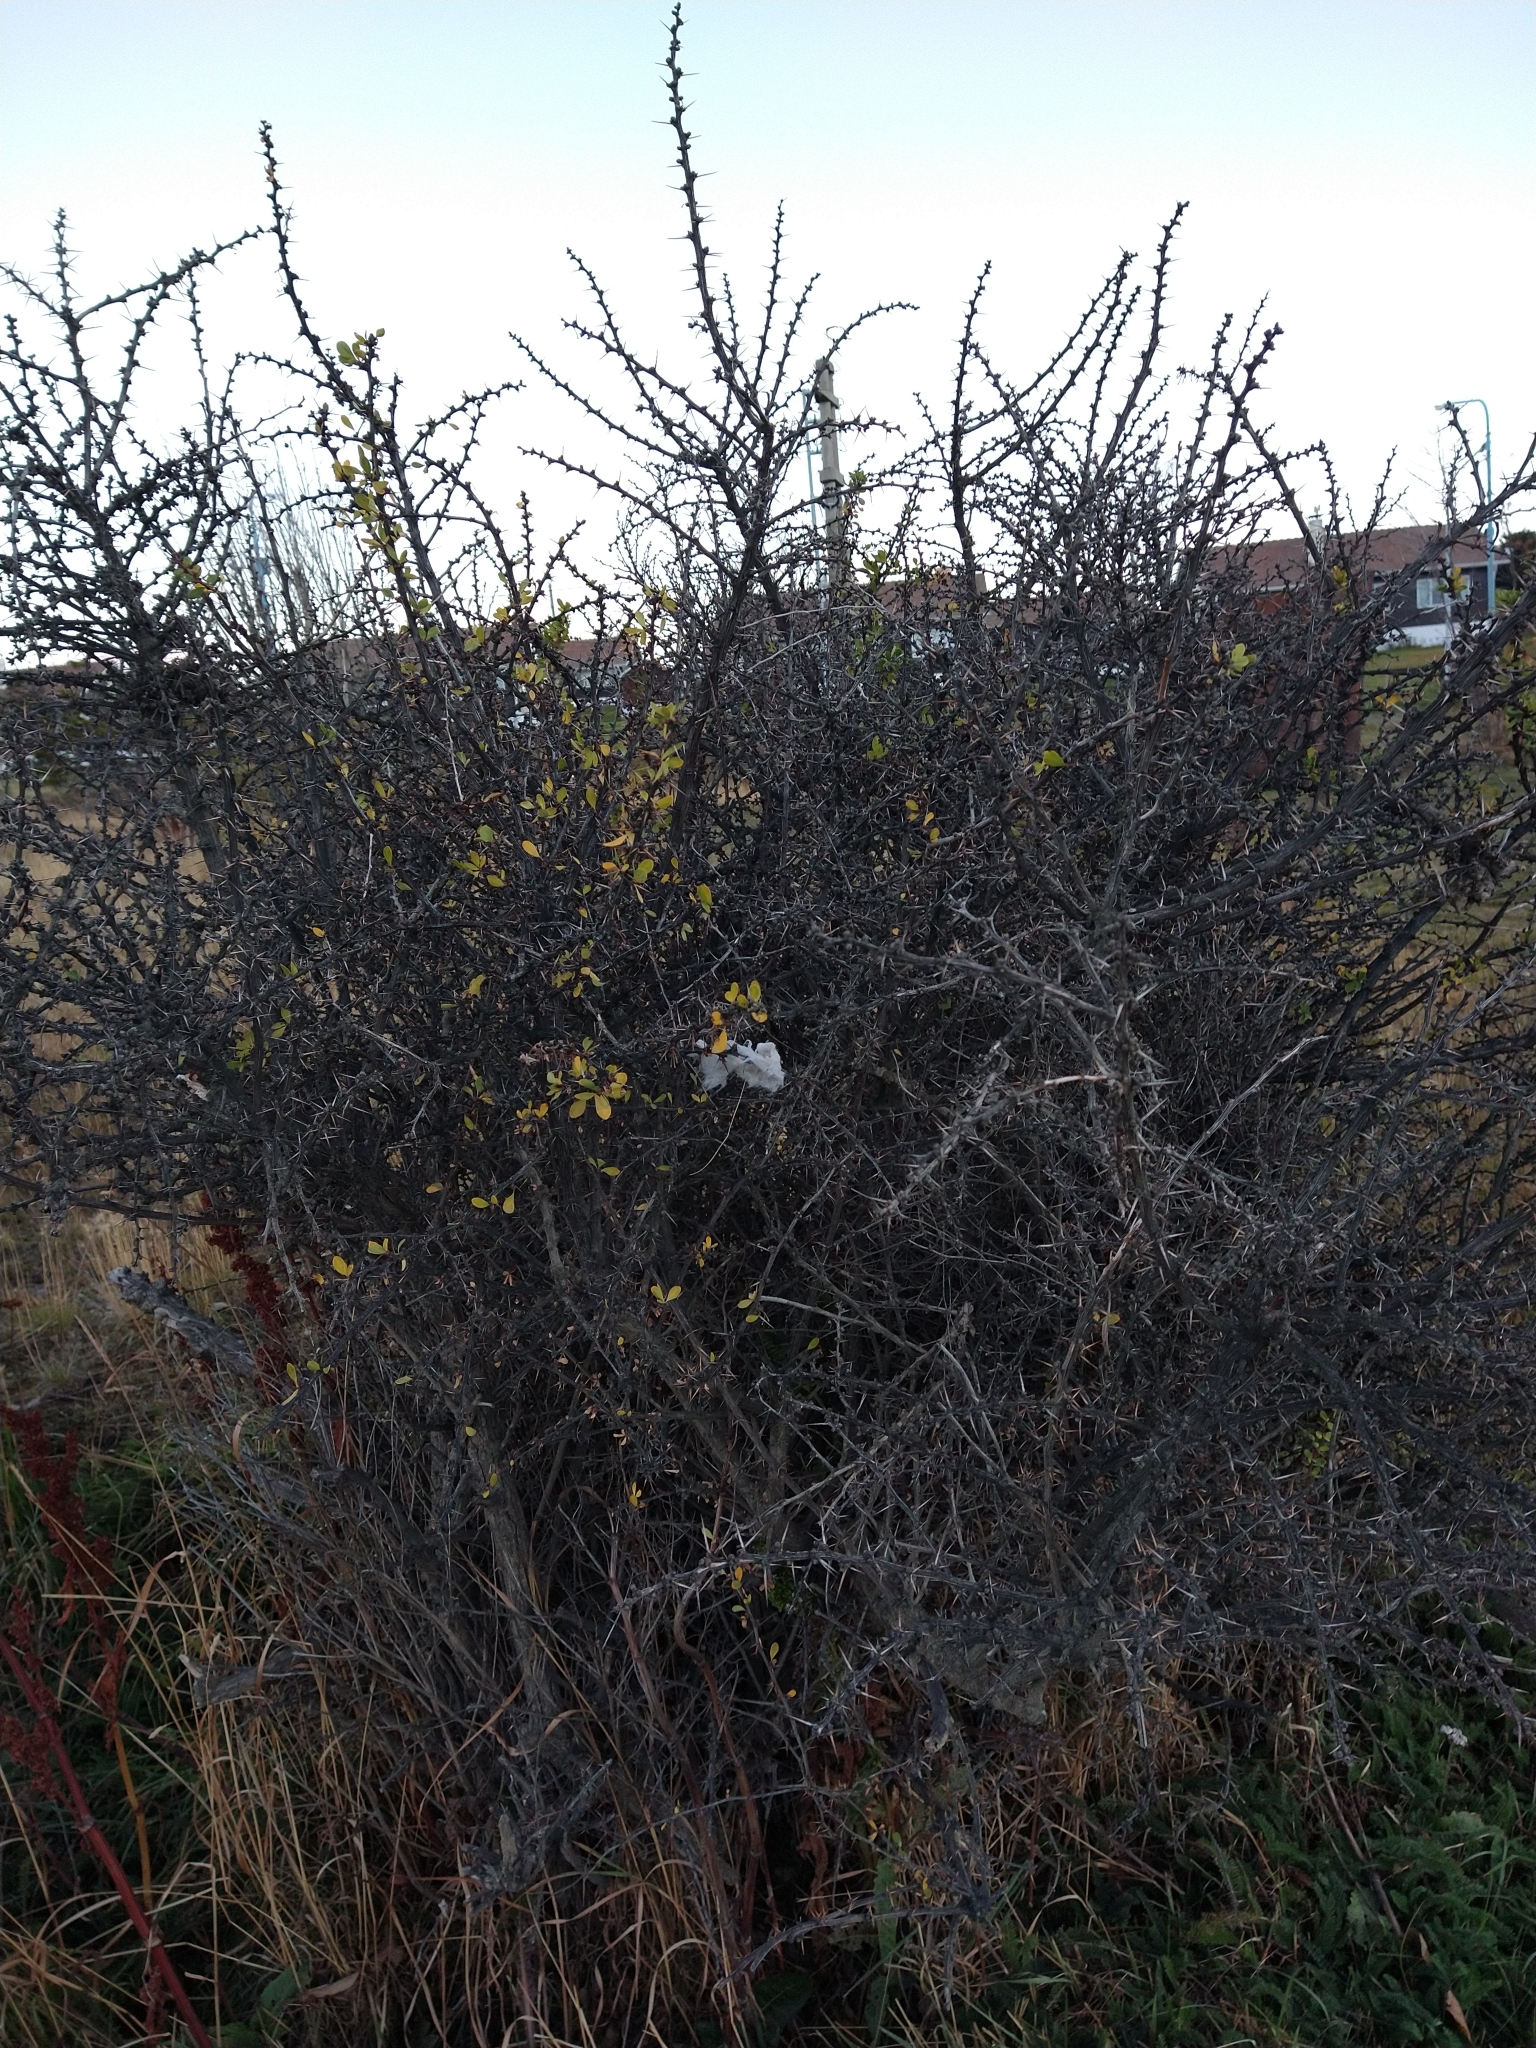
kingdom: Plantae
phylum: Tracheophyta
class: Magnoliopsida
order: Ranunculales
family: Berberidaceae
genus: Berberis
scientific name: Berberis microphylla
